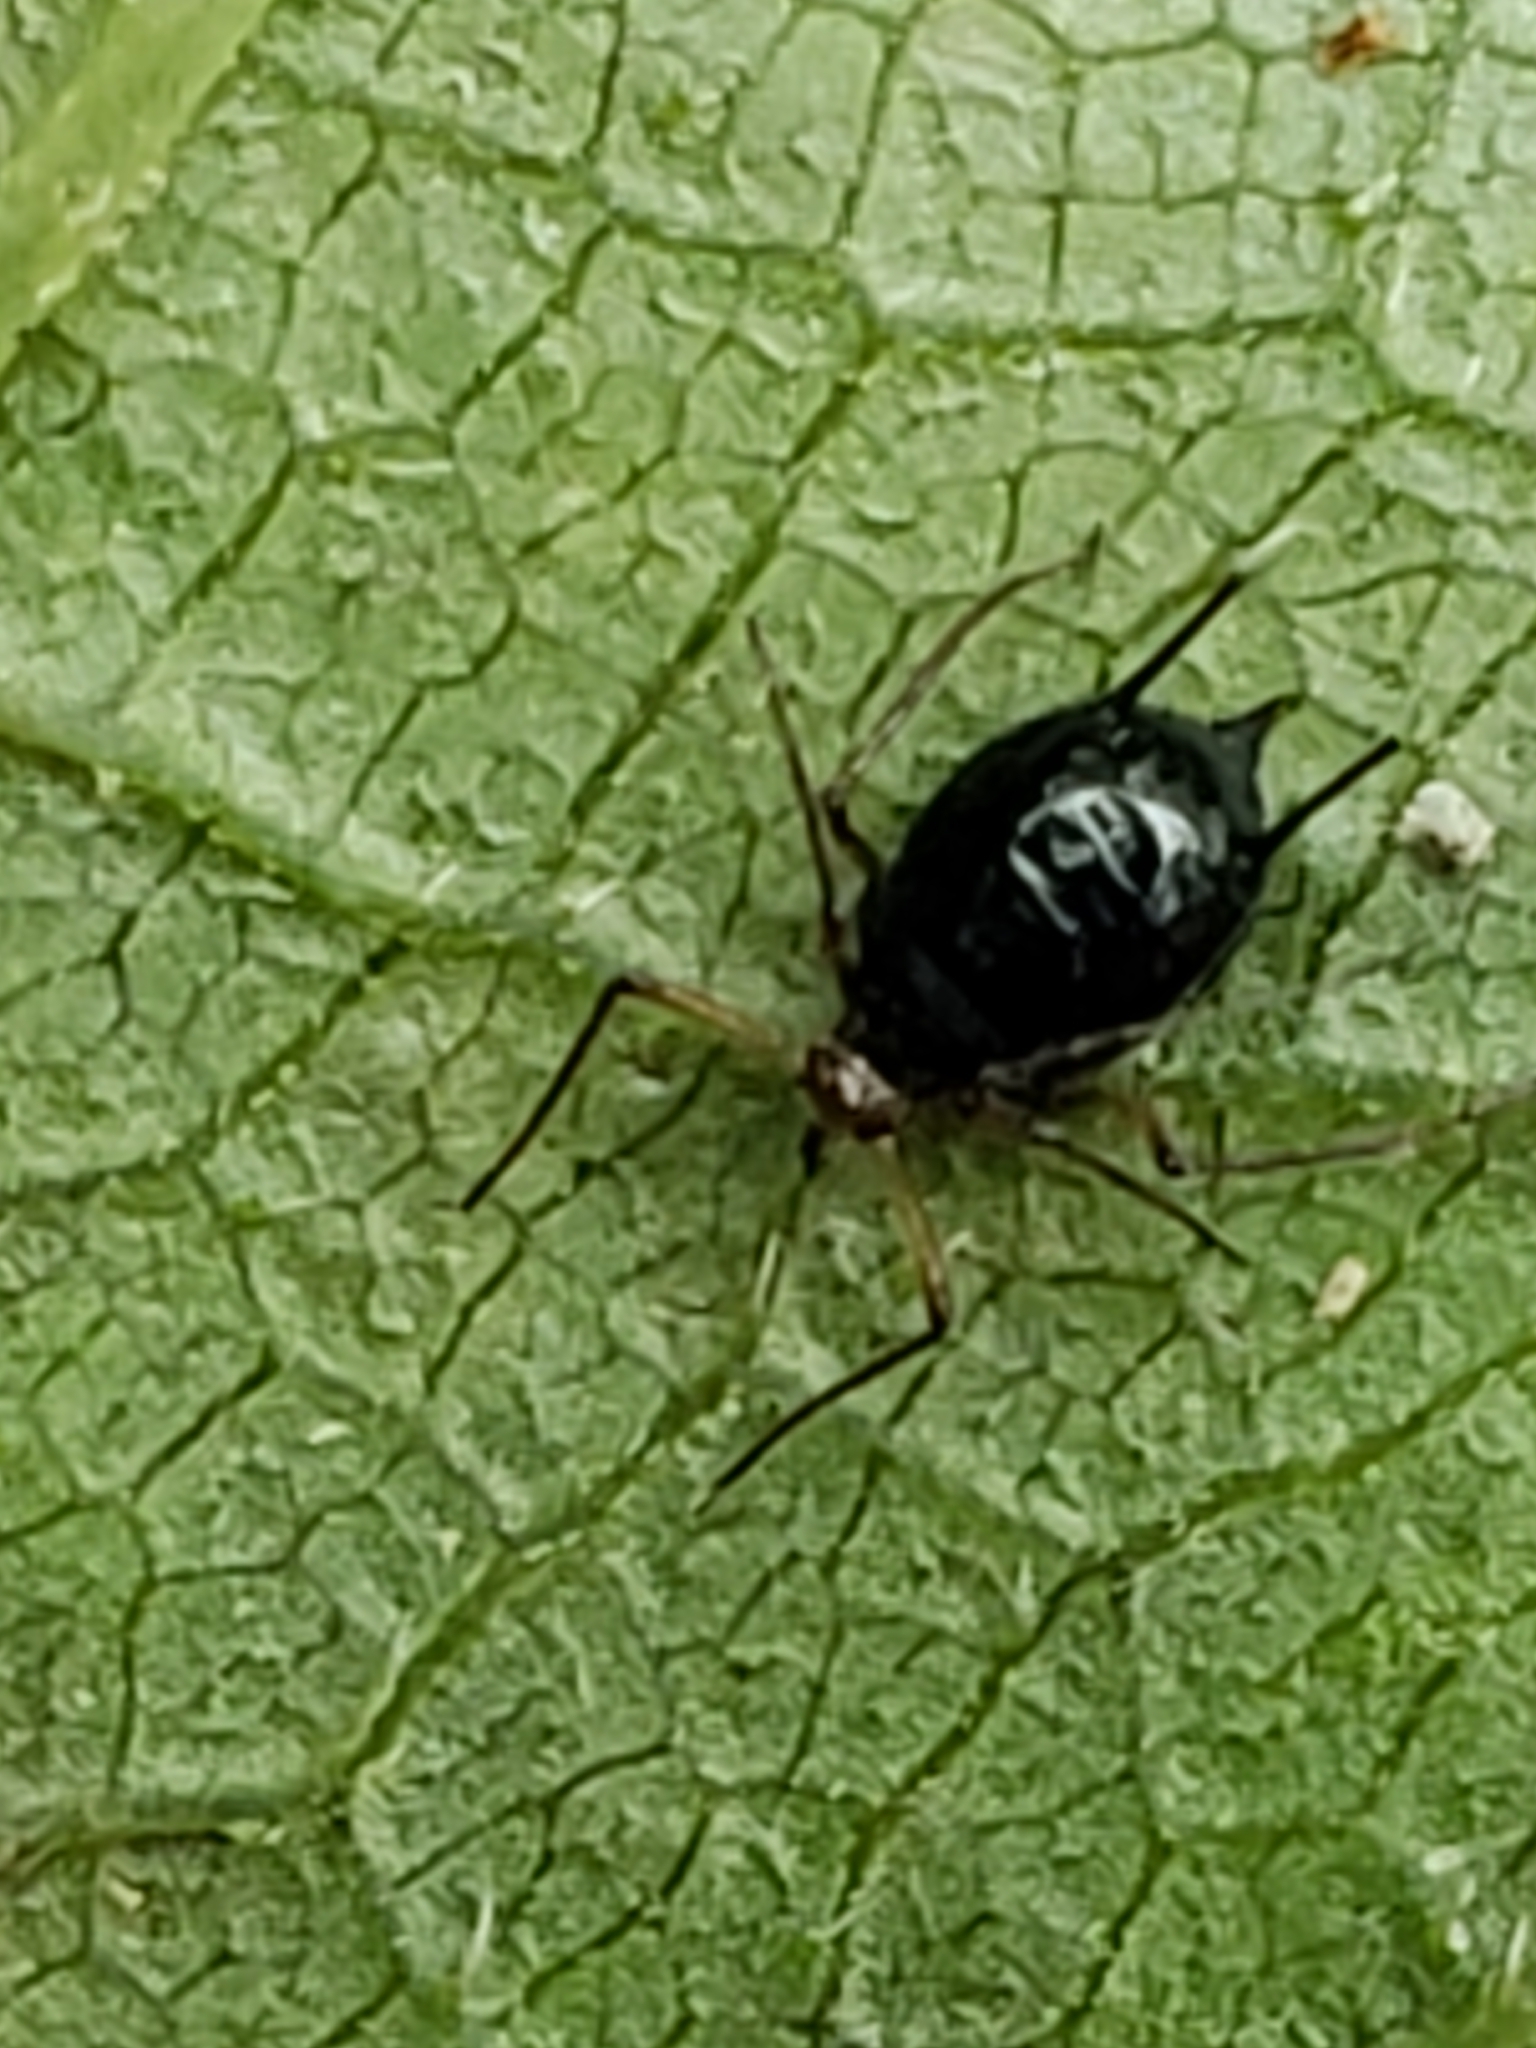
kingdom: Animalia
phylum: Arthropoda
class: Insecta
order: Hemiptera
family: Aphididae
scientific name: Aphididae
